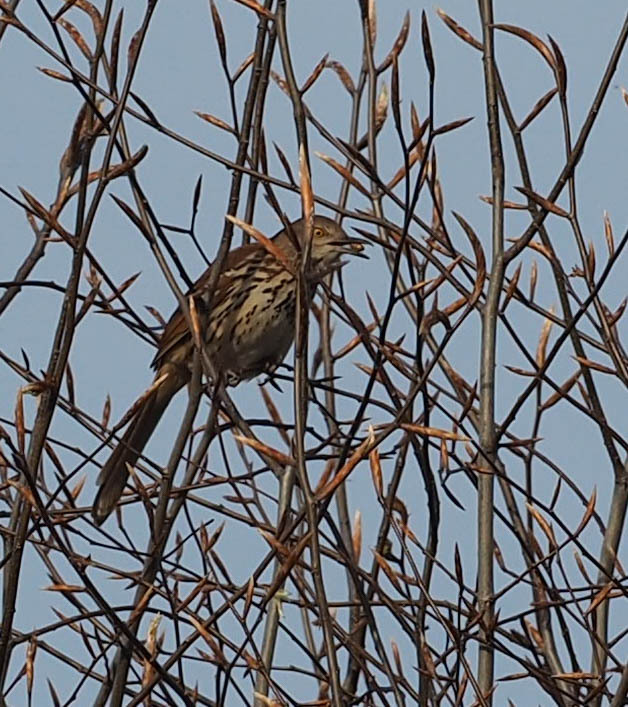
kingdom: Animalia
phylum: Chordata
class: Aves
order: Passeriformes
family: Mimidae
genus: Toxostoma
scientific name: Toxostoma rufum
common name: Brown thrasher
